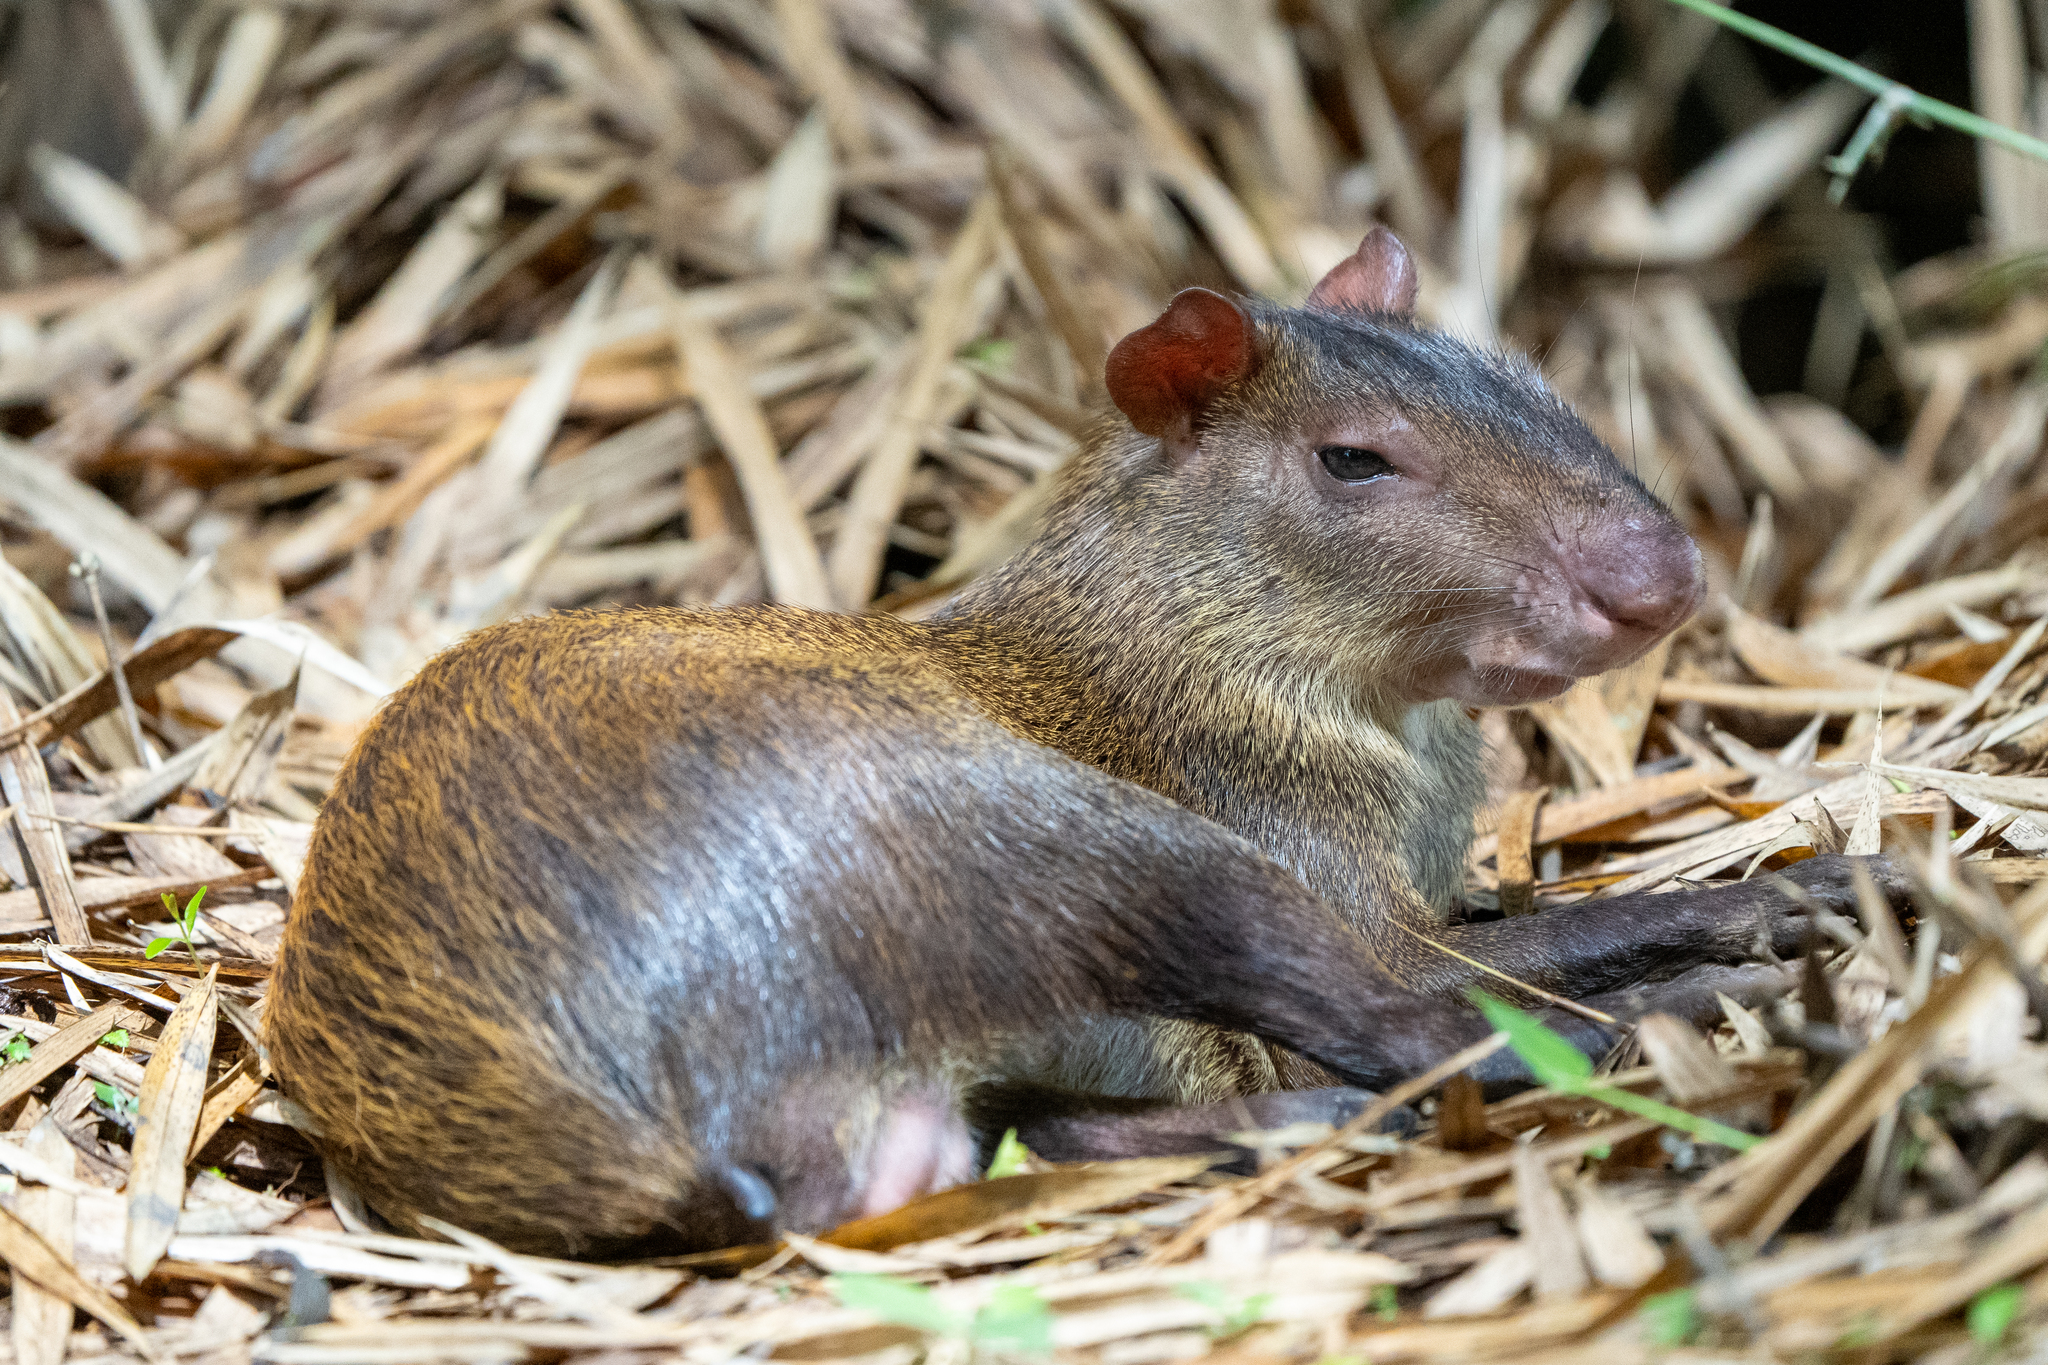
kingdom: Animalia
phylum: Chordata
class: Mammalia
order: Rodentia
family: Dasyproctidae
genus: Dasyprocta
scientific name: Dasyprocta punctata
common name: Central american agouti
